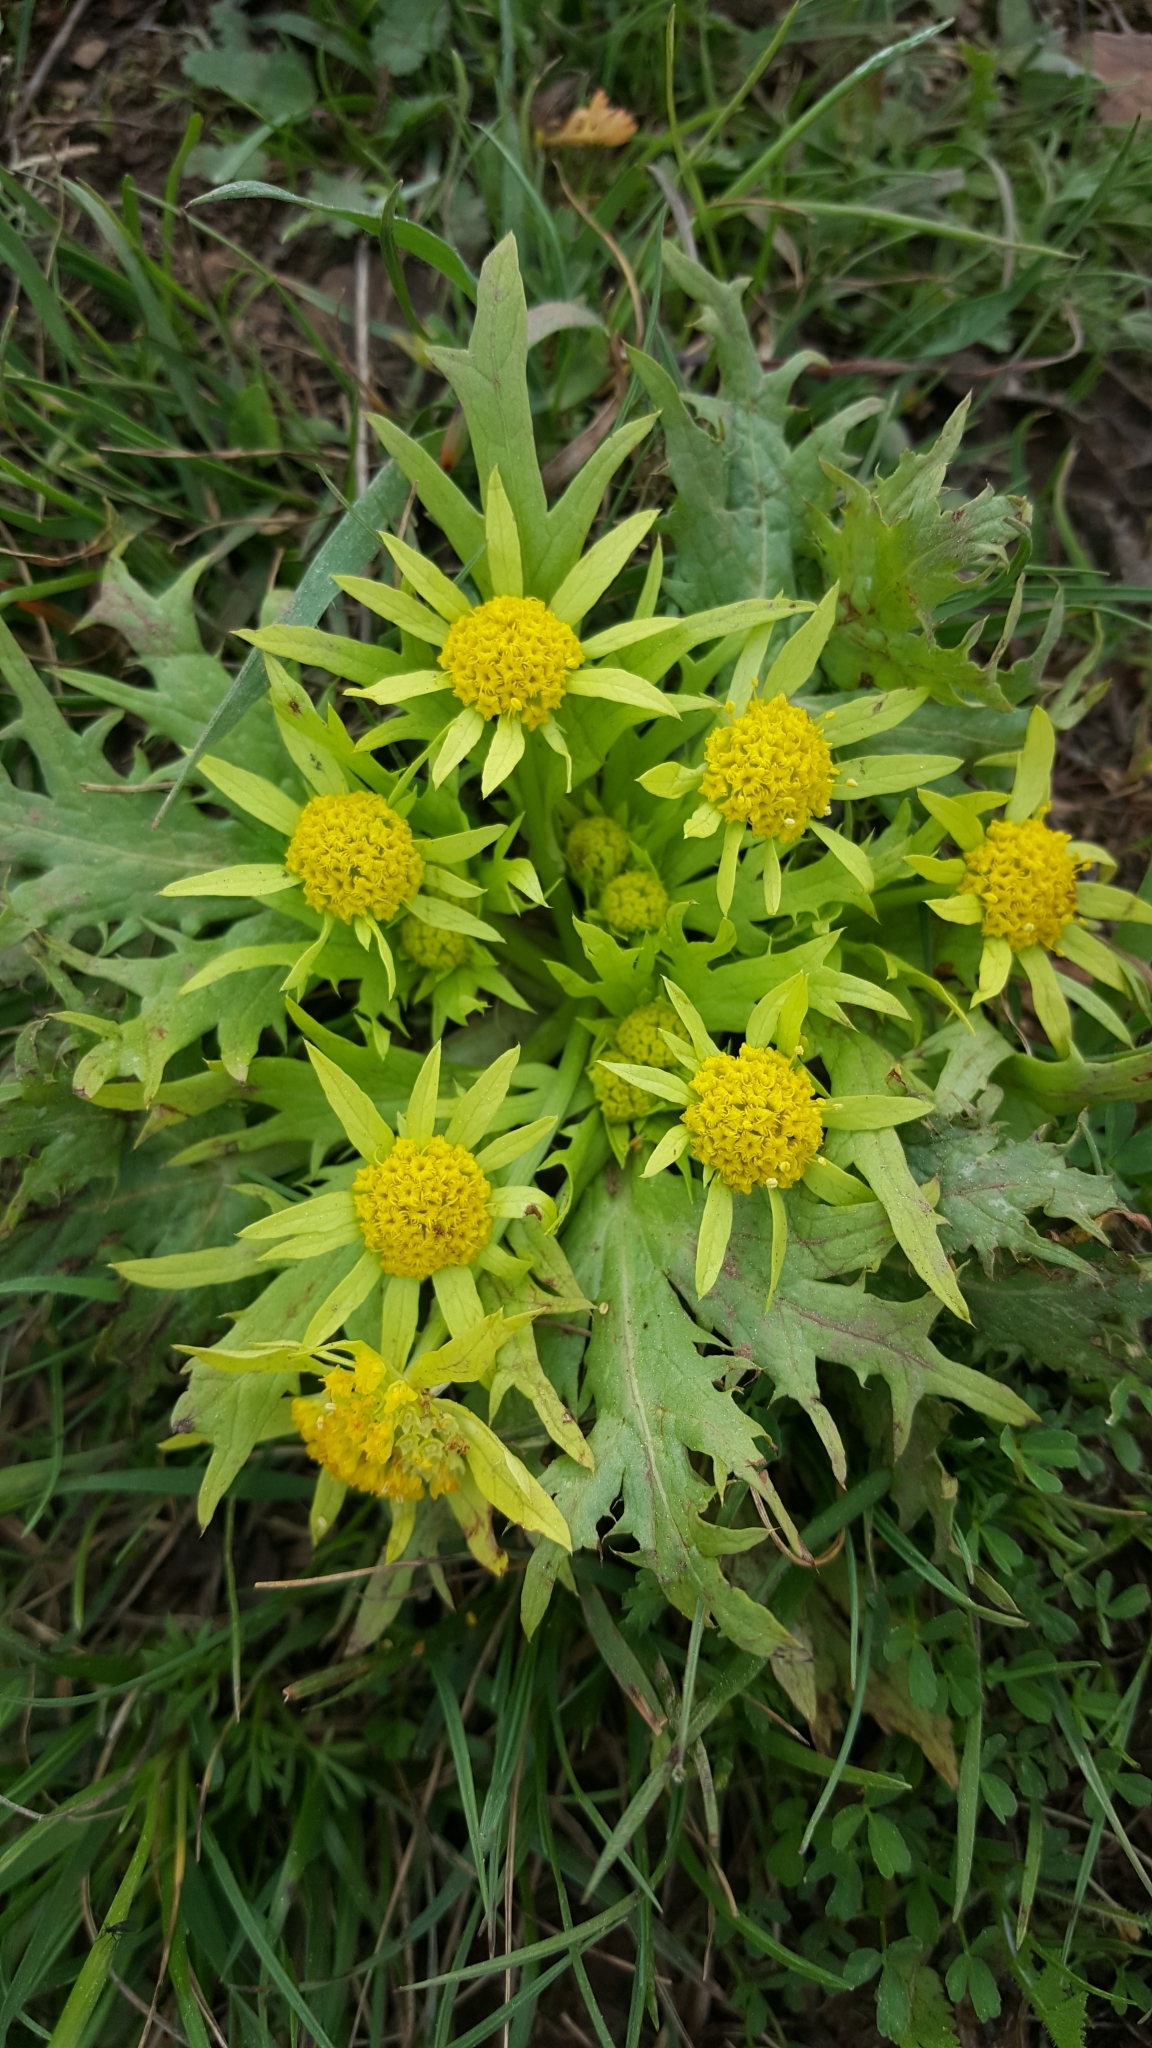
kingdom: Plantae
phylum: Tracheophyta
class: Magnoliopsida
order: Apiales
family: Apiaceae
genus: Sanicula
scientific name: Sanicula arctopoides
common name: Footsteps-of-spring
